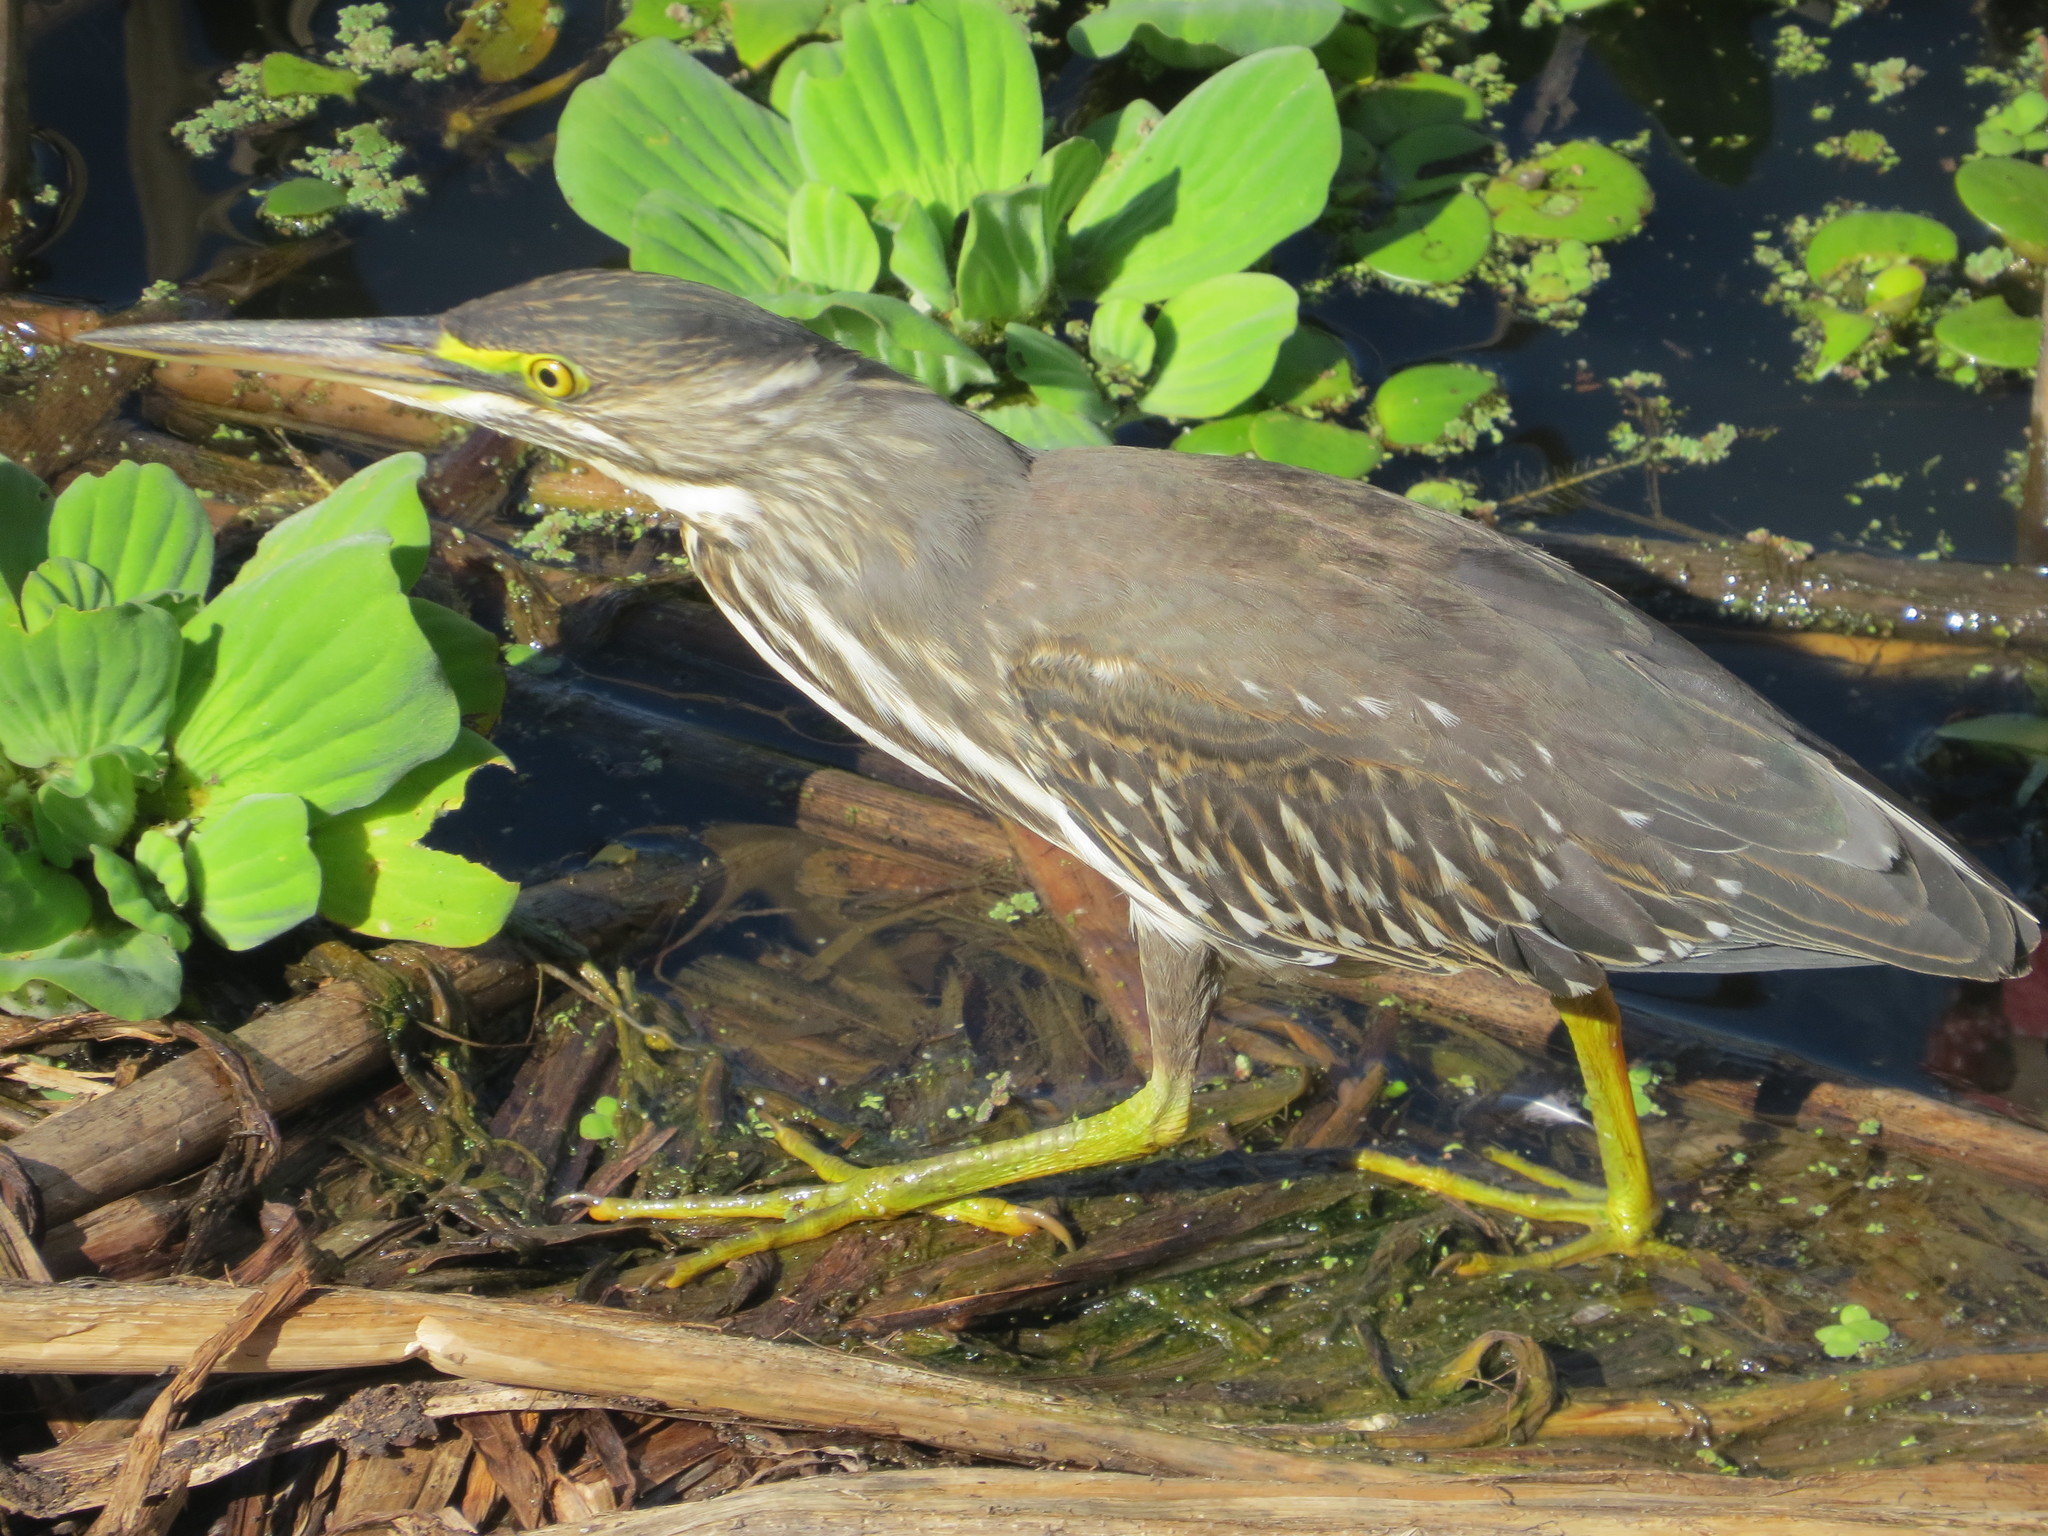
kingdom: Animalia
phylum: Chordata
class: Aves
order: Pelecaniformes
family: Ardeidae
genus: Butorides
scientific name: Butorides striata
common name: Striated heron
